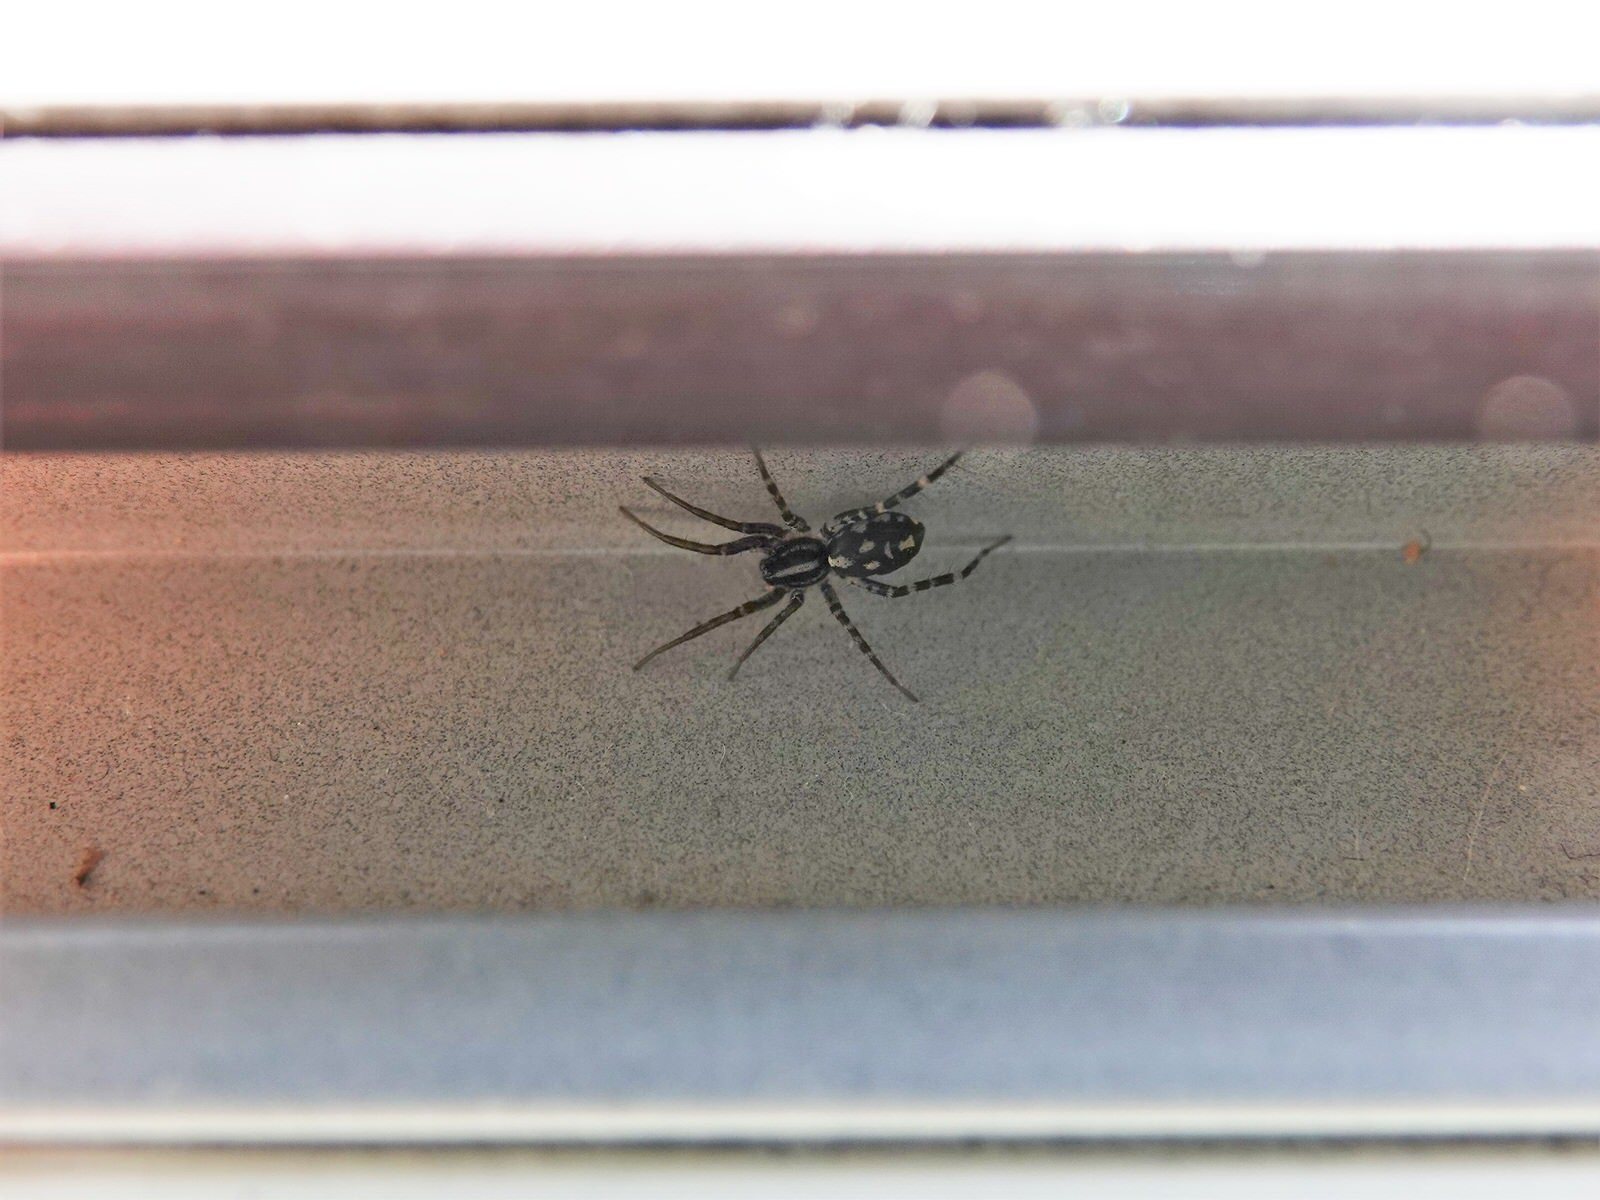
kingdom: Animalia
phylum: Arthropoda
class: Arachnida
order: Araneae
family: Corinnidae
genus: Nyssus
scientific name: Nyssus coloripes
